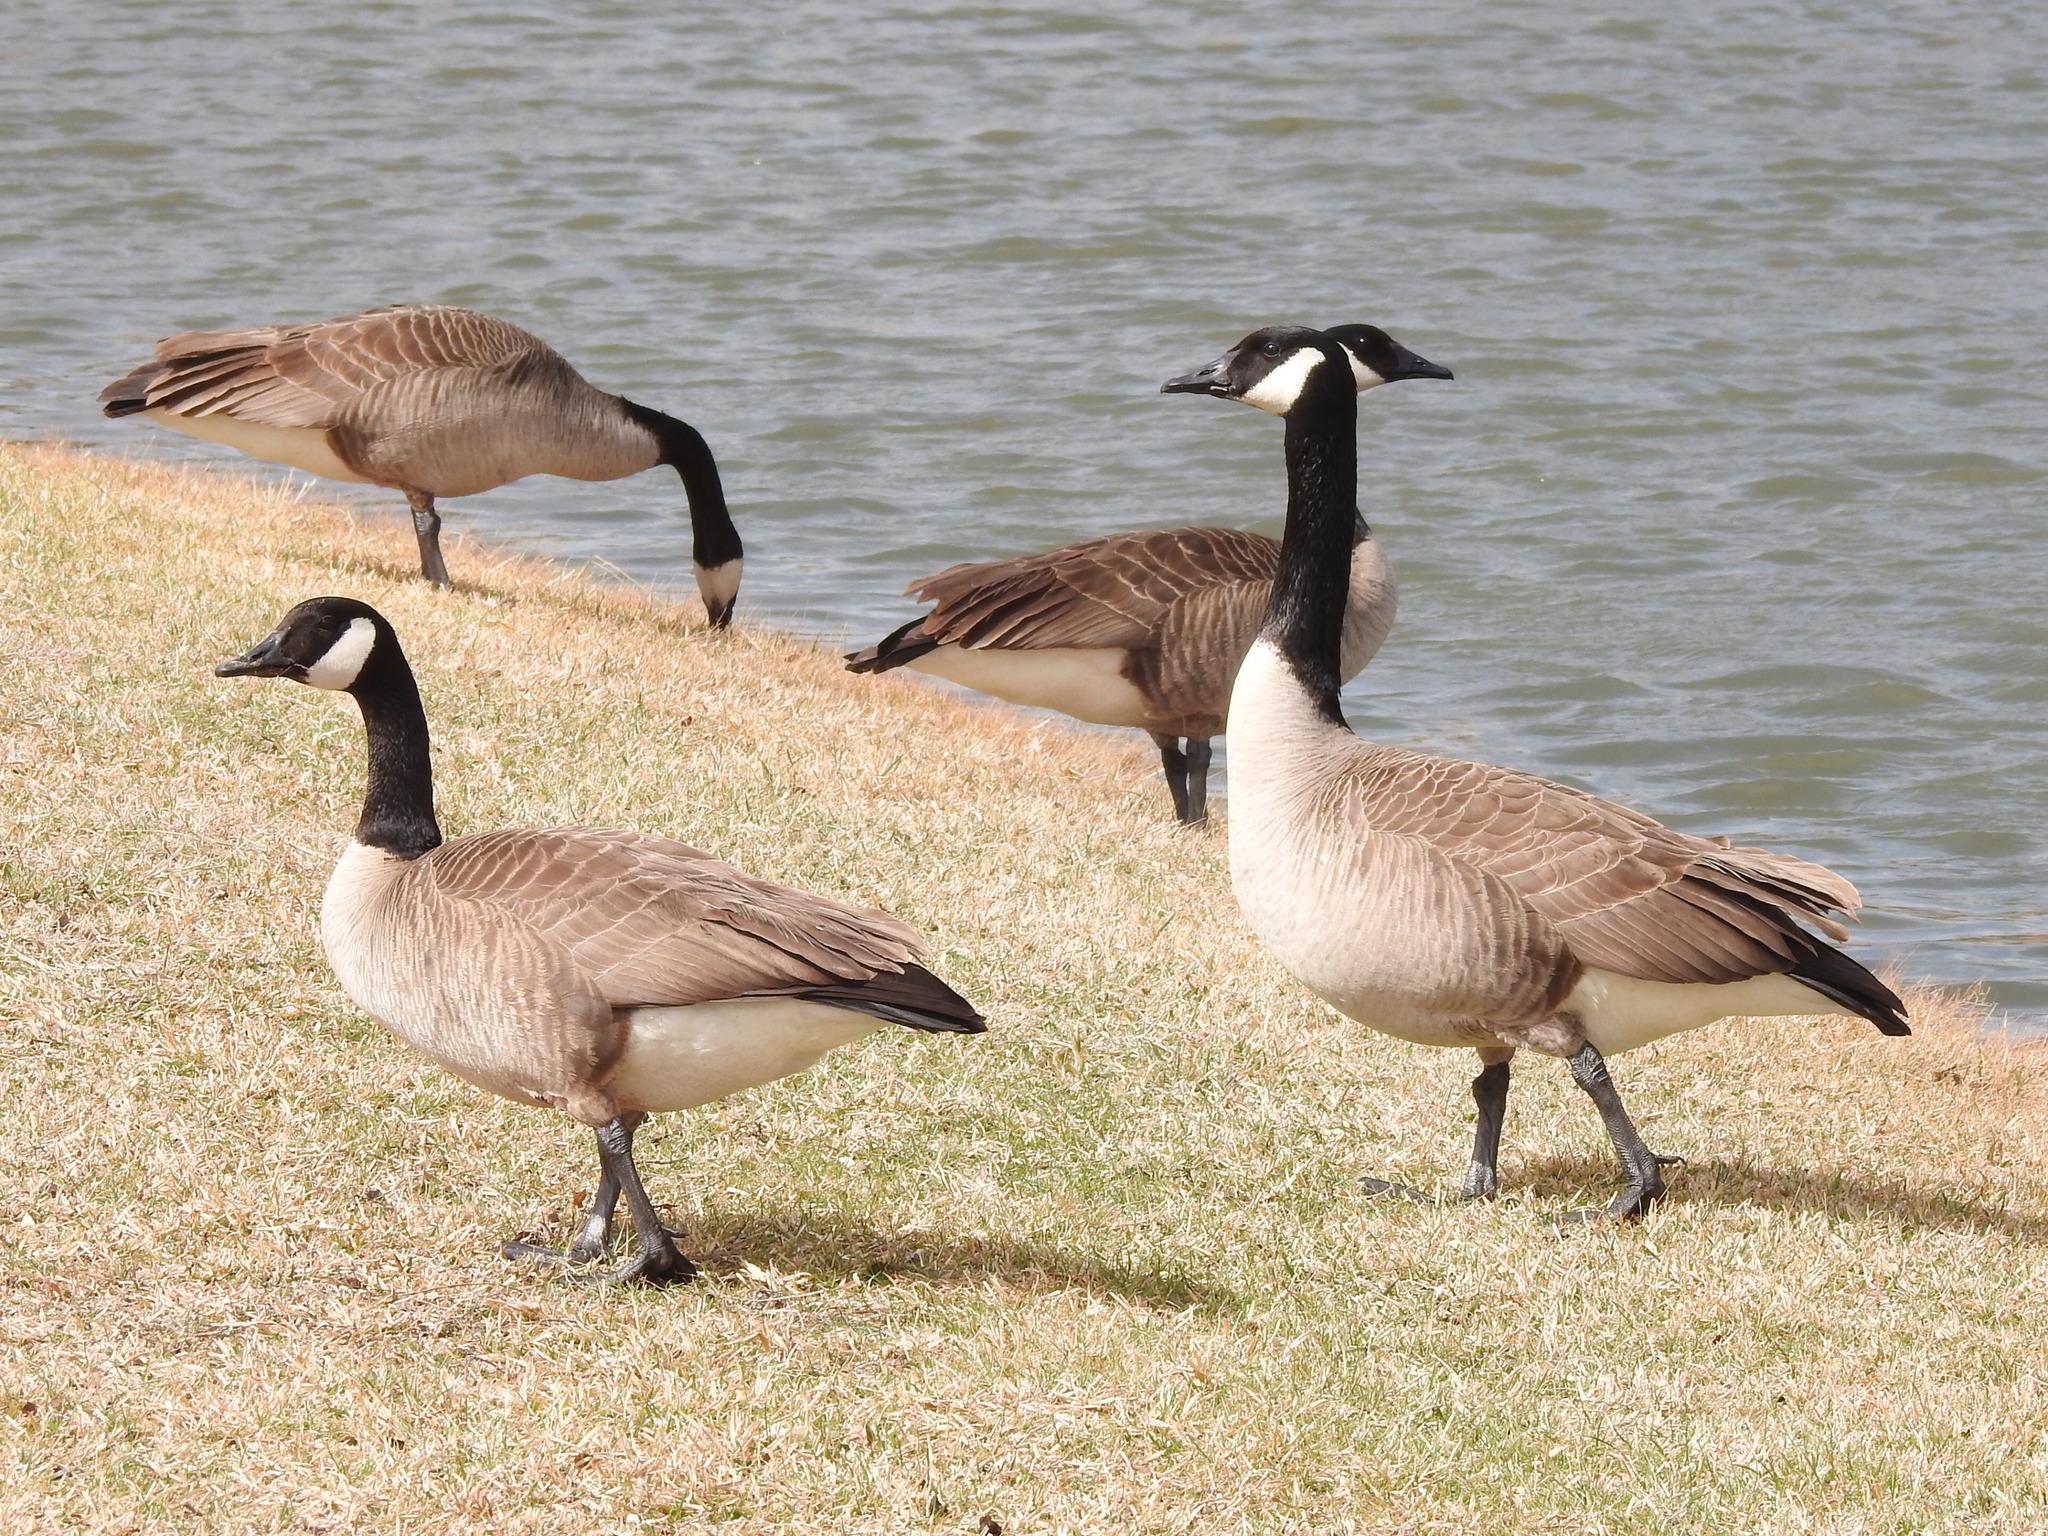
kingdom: Animalia
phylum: Chordata
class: Aves
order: Anseriformes
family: Anatidae
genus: Branta
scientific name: Branta canadensis
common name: Canada goose
